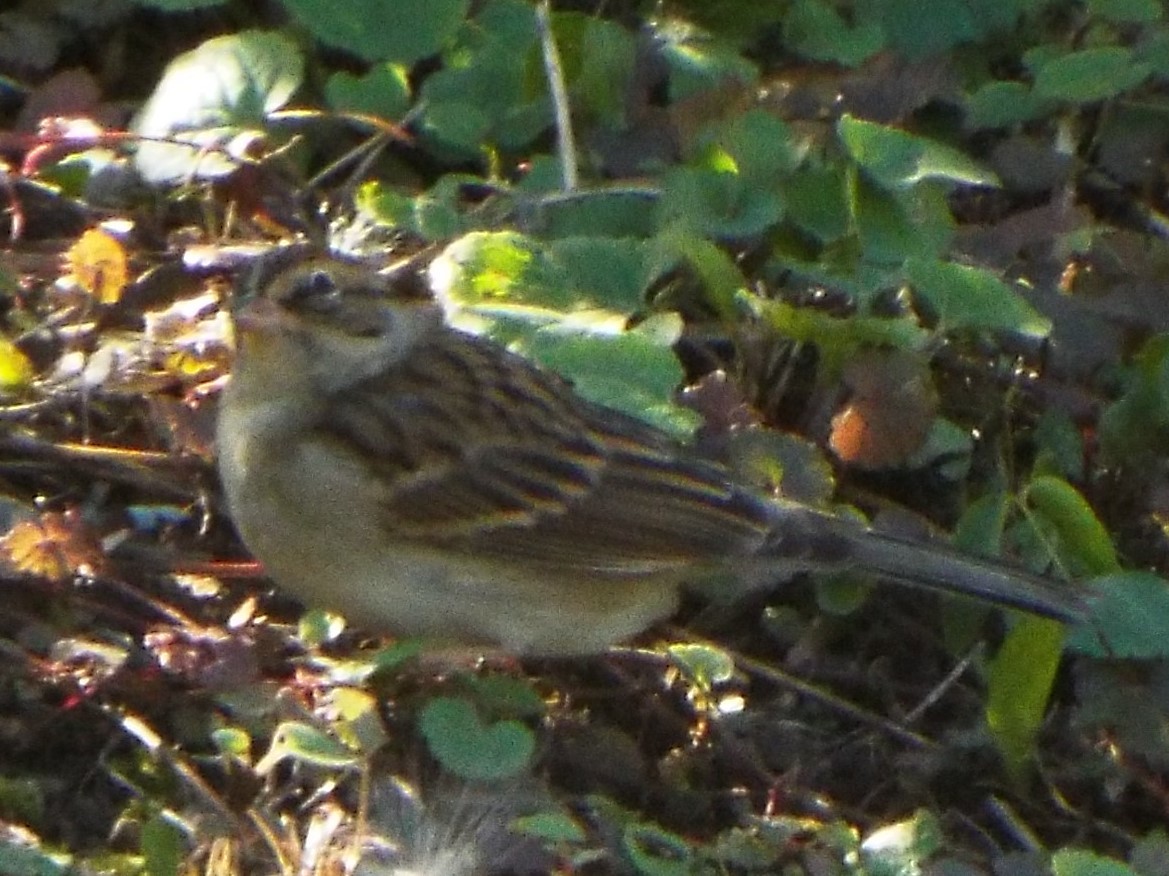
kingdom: Animalia
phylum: Chordata
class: Aves
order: Passeriformes
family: Passerellidae
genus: Spizella
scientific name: Spizella passerina
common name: Chipping sparrow
